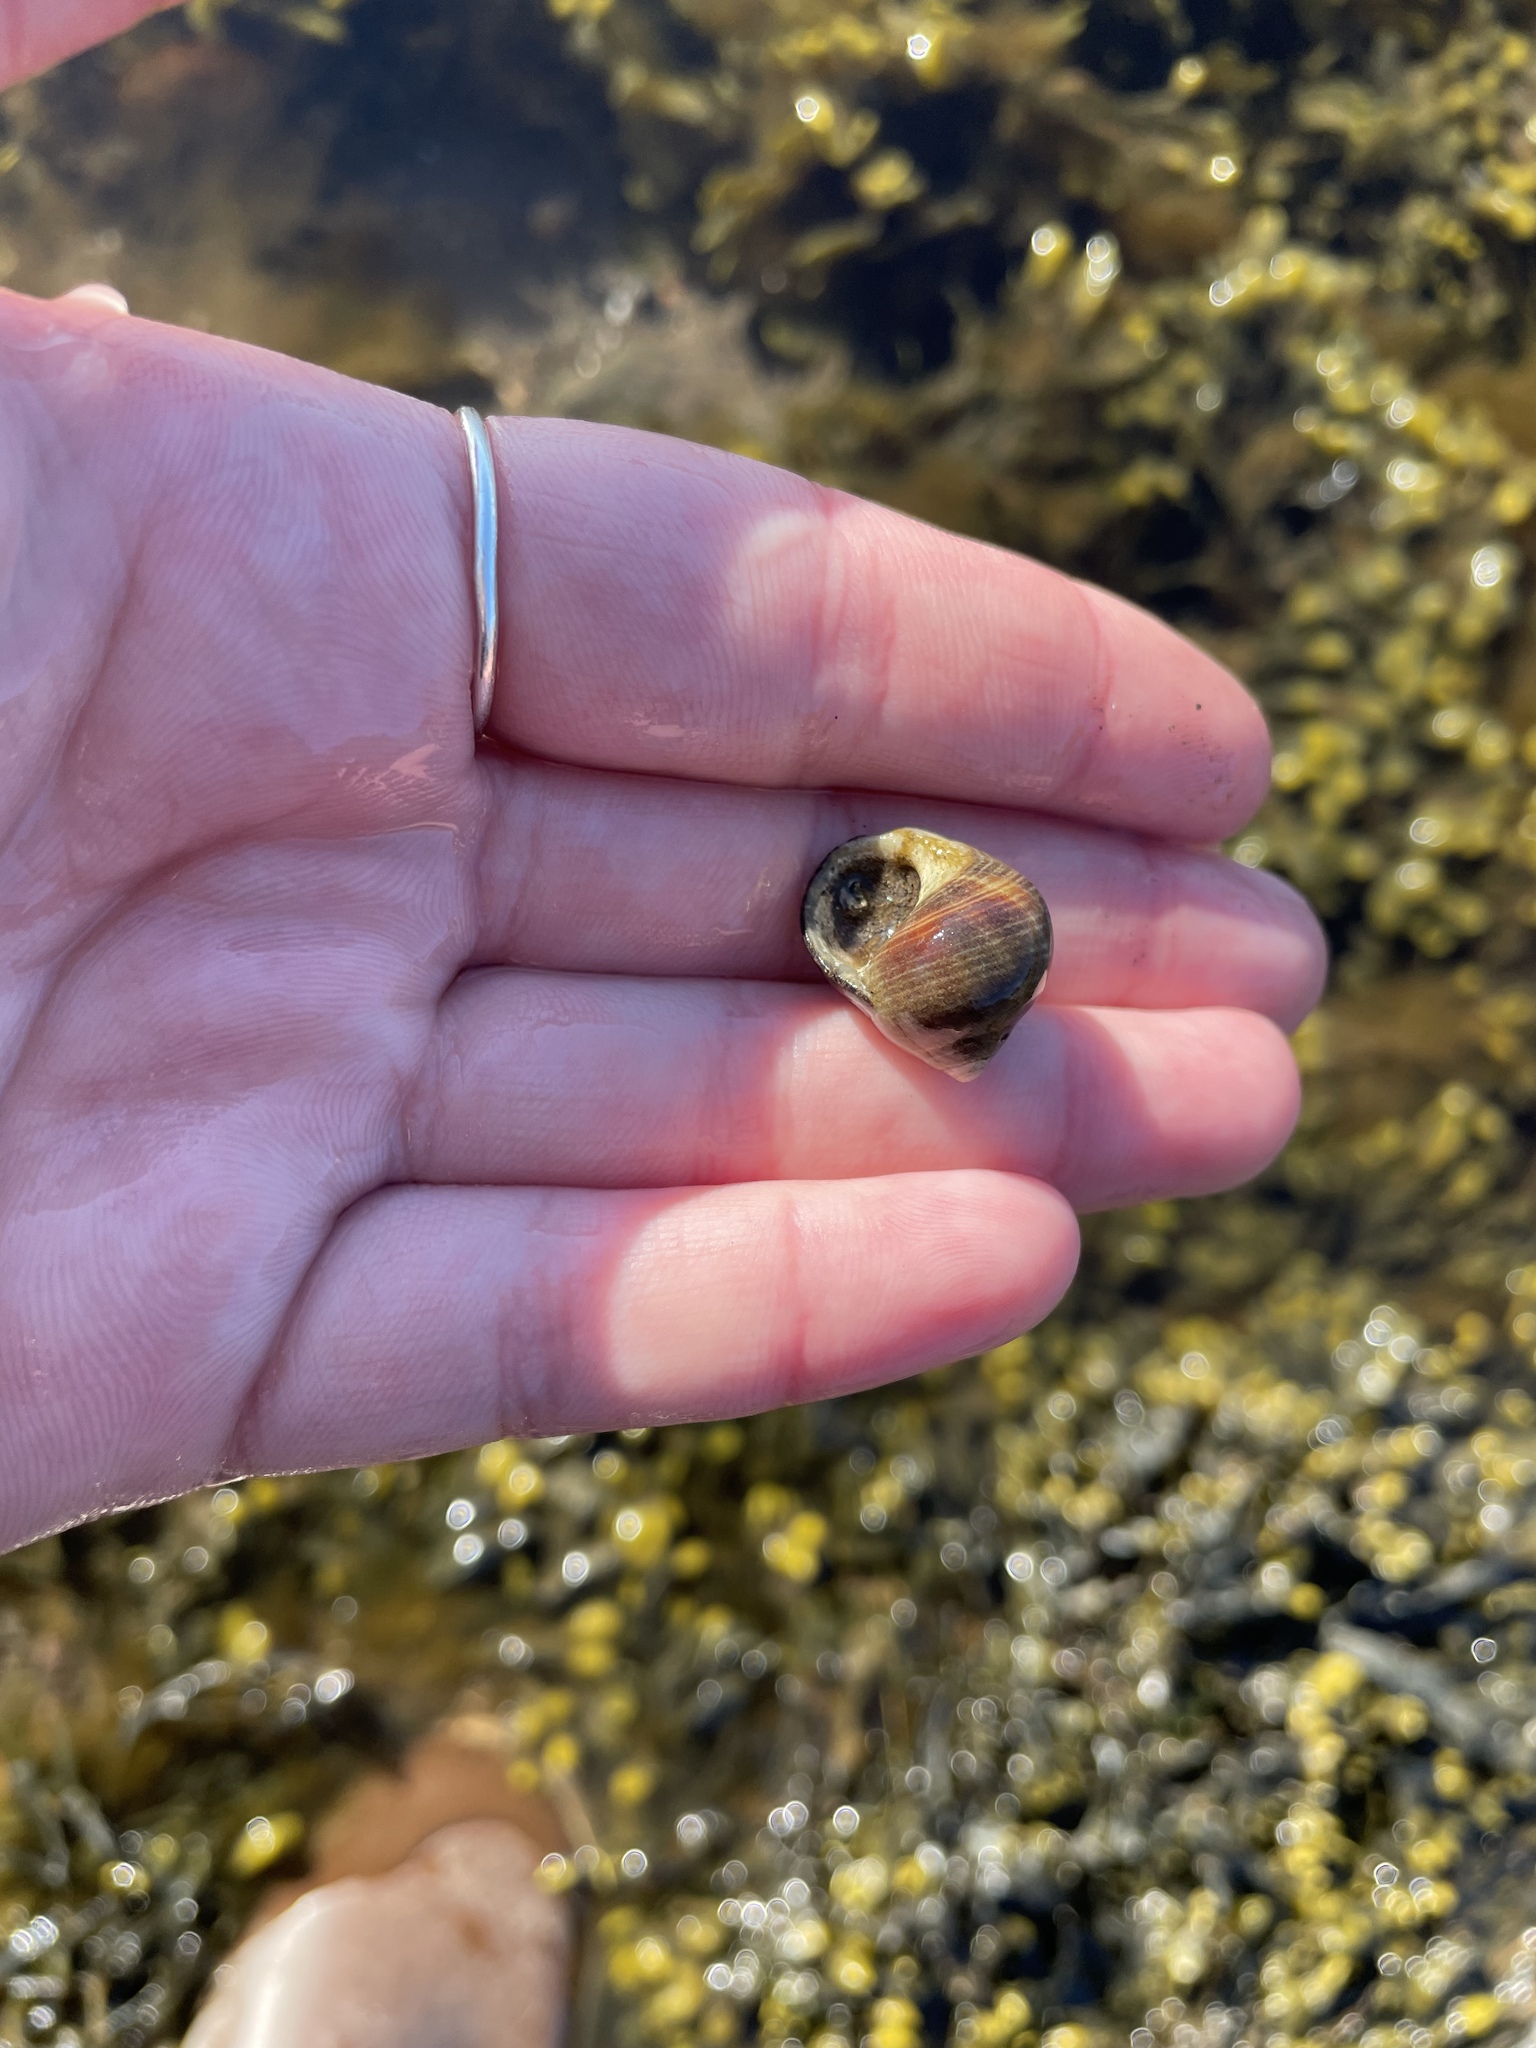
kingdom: Animalia
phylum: Mollusca
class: Gastropoda
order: Littorinimorpha
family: Littorinidae
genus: Littorina
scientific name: Littorina littorea
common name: Common periwinkle
